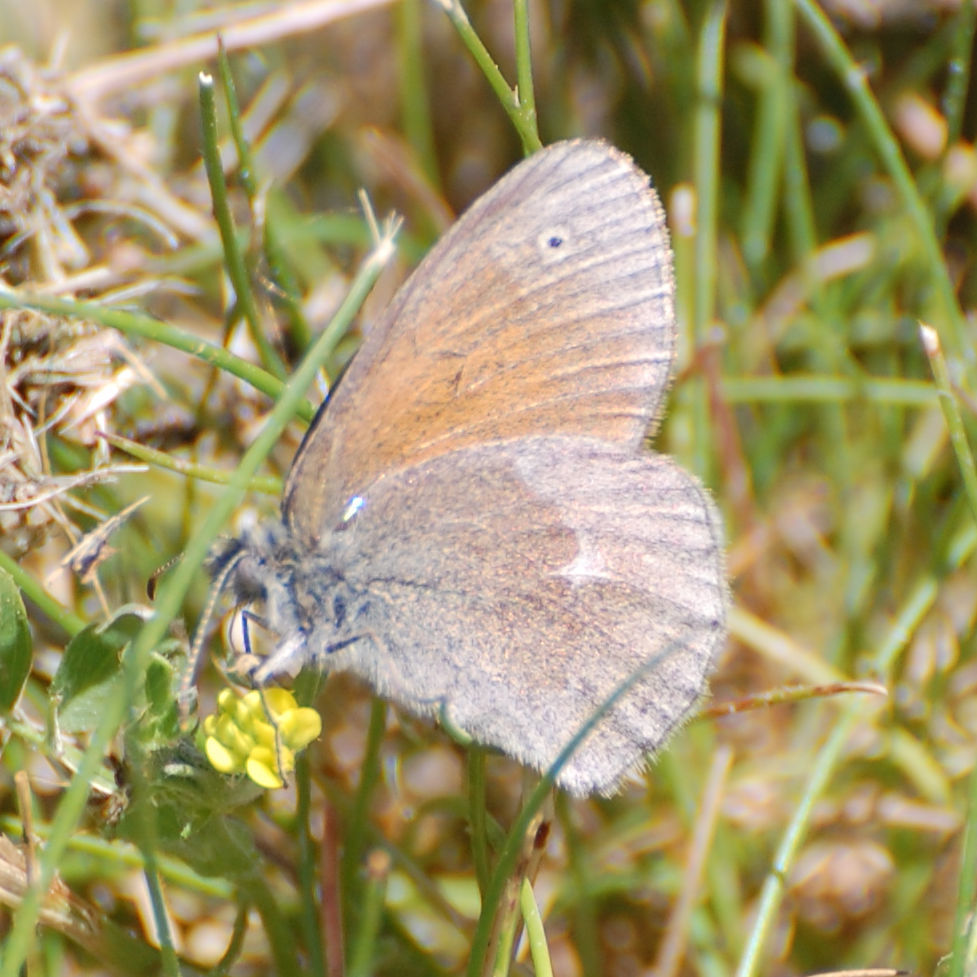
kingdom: Animalia
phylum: Arthropoda
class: Insecta
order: Lepidoptera
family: Nymphalidae
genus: Coenonympha
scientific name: Coenonympha california
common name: Common ringlet
